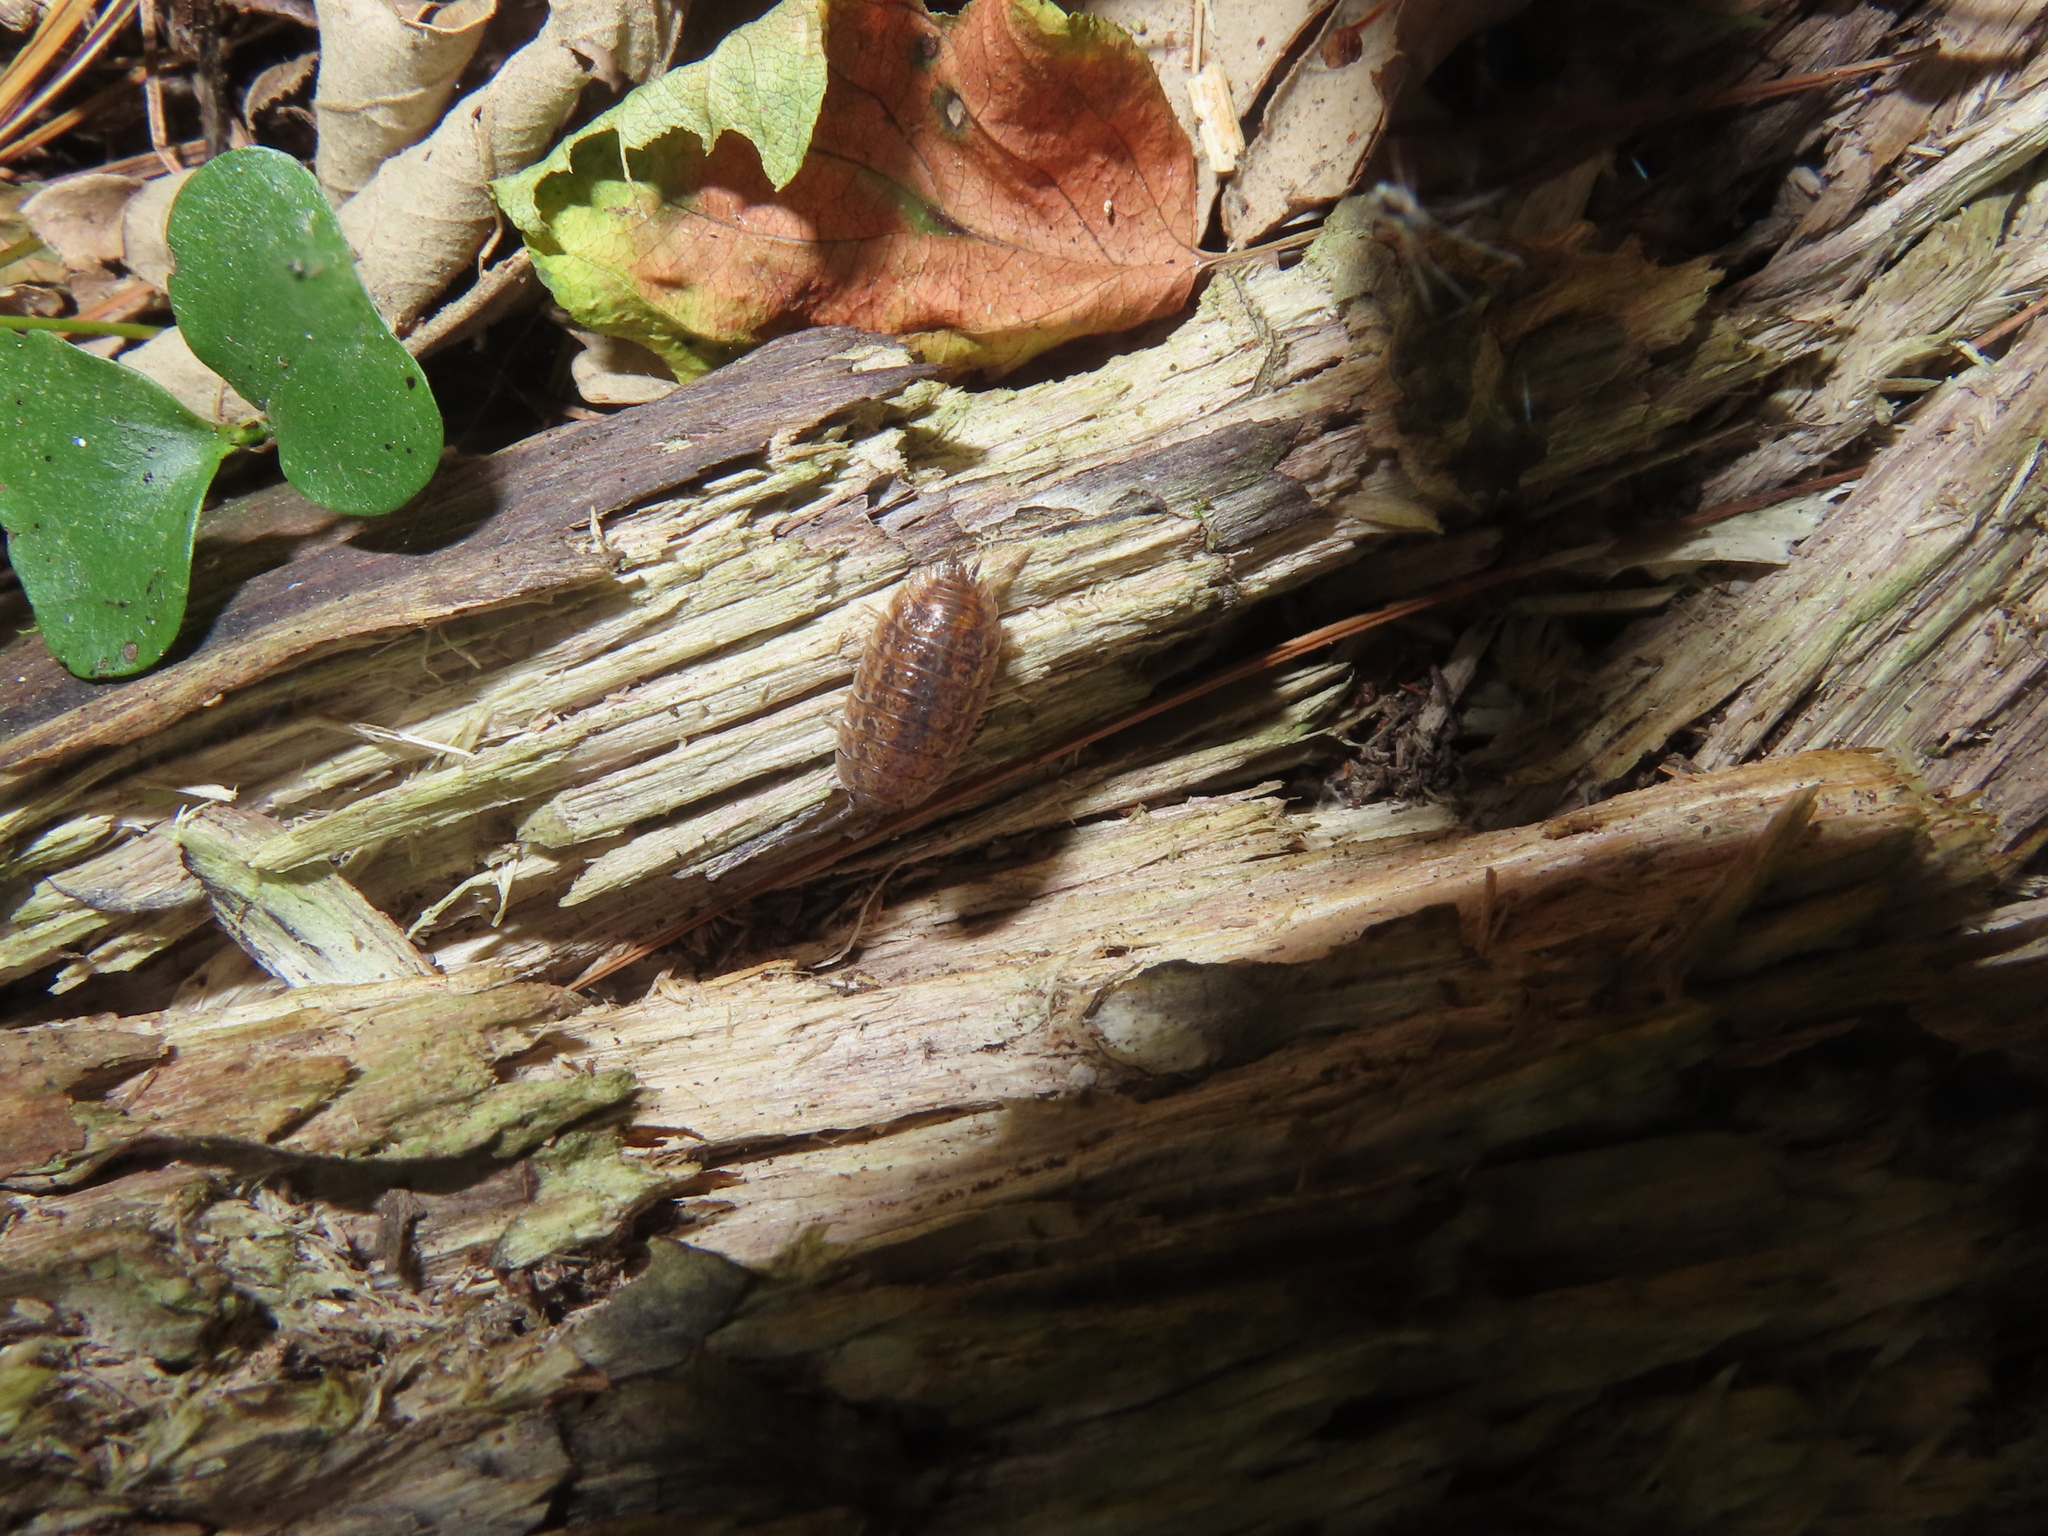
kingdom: Animalia
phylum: Arthropoda
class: Malacostraca
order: Isopoda
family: Trachelipodidae
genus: Trachelipus
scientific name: Trachelipus rathkii
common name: Isopod
